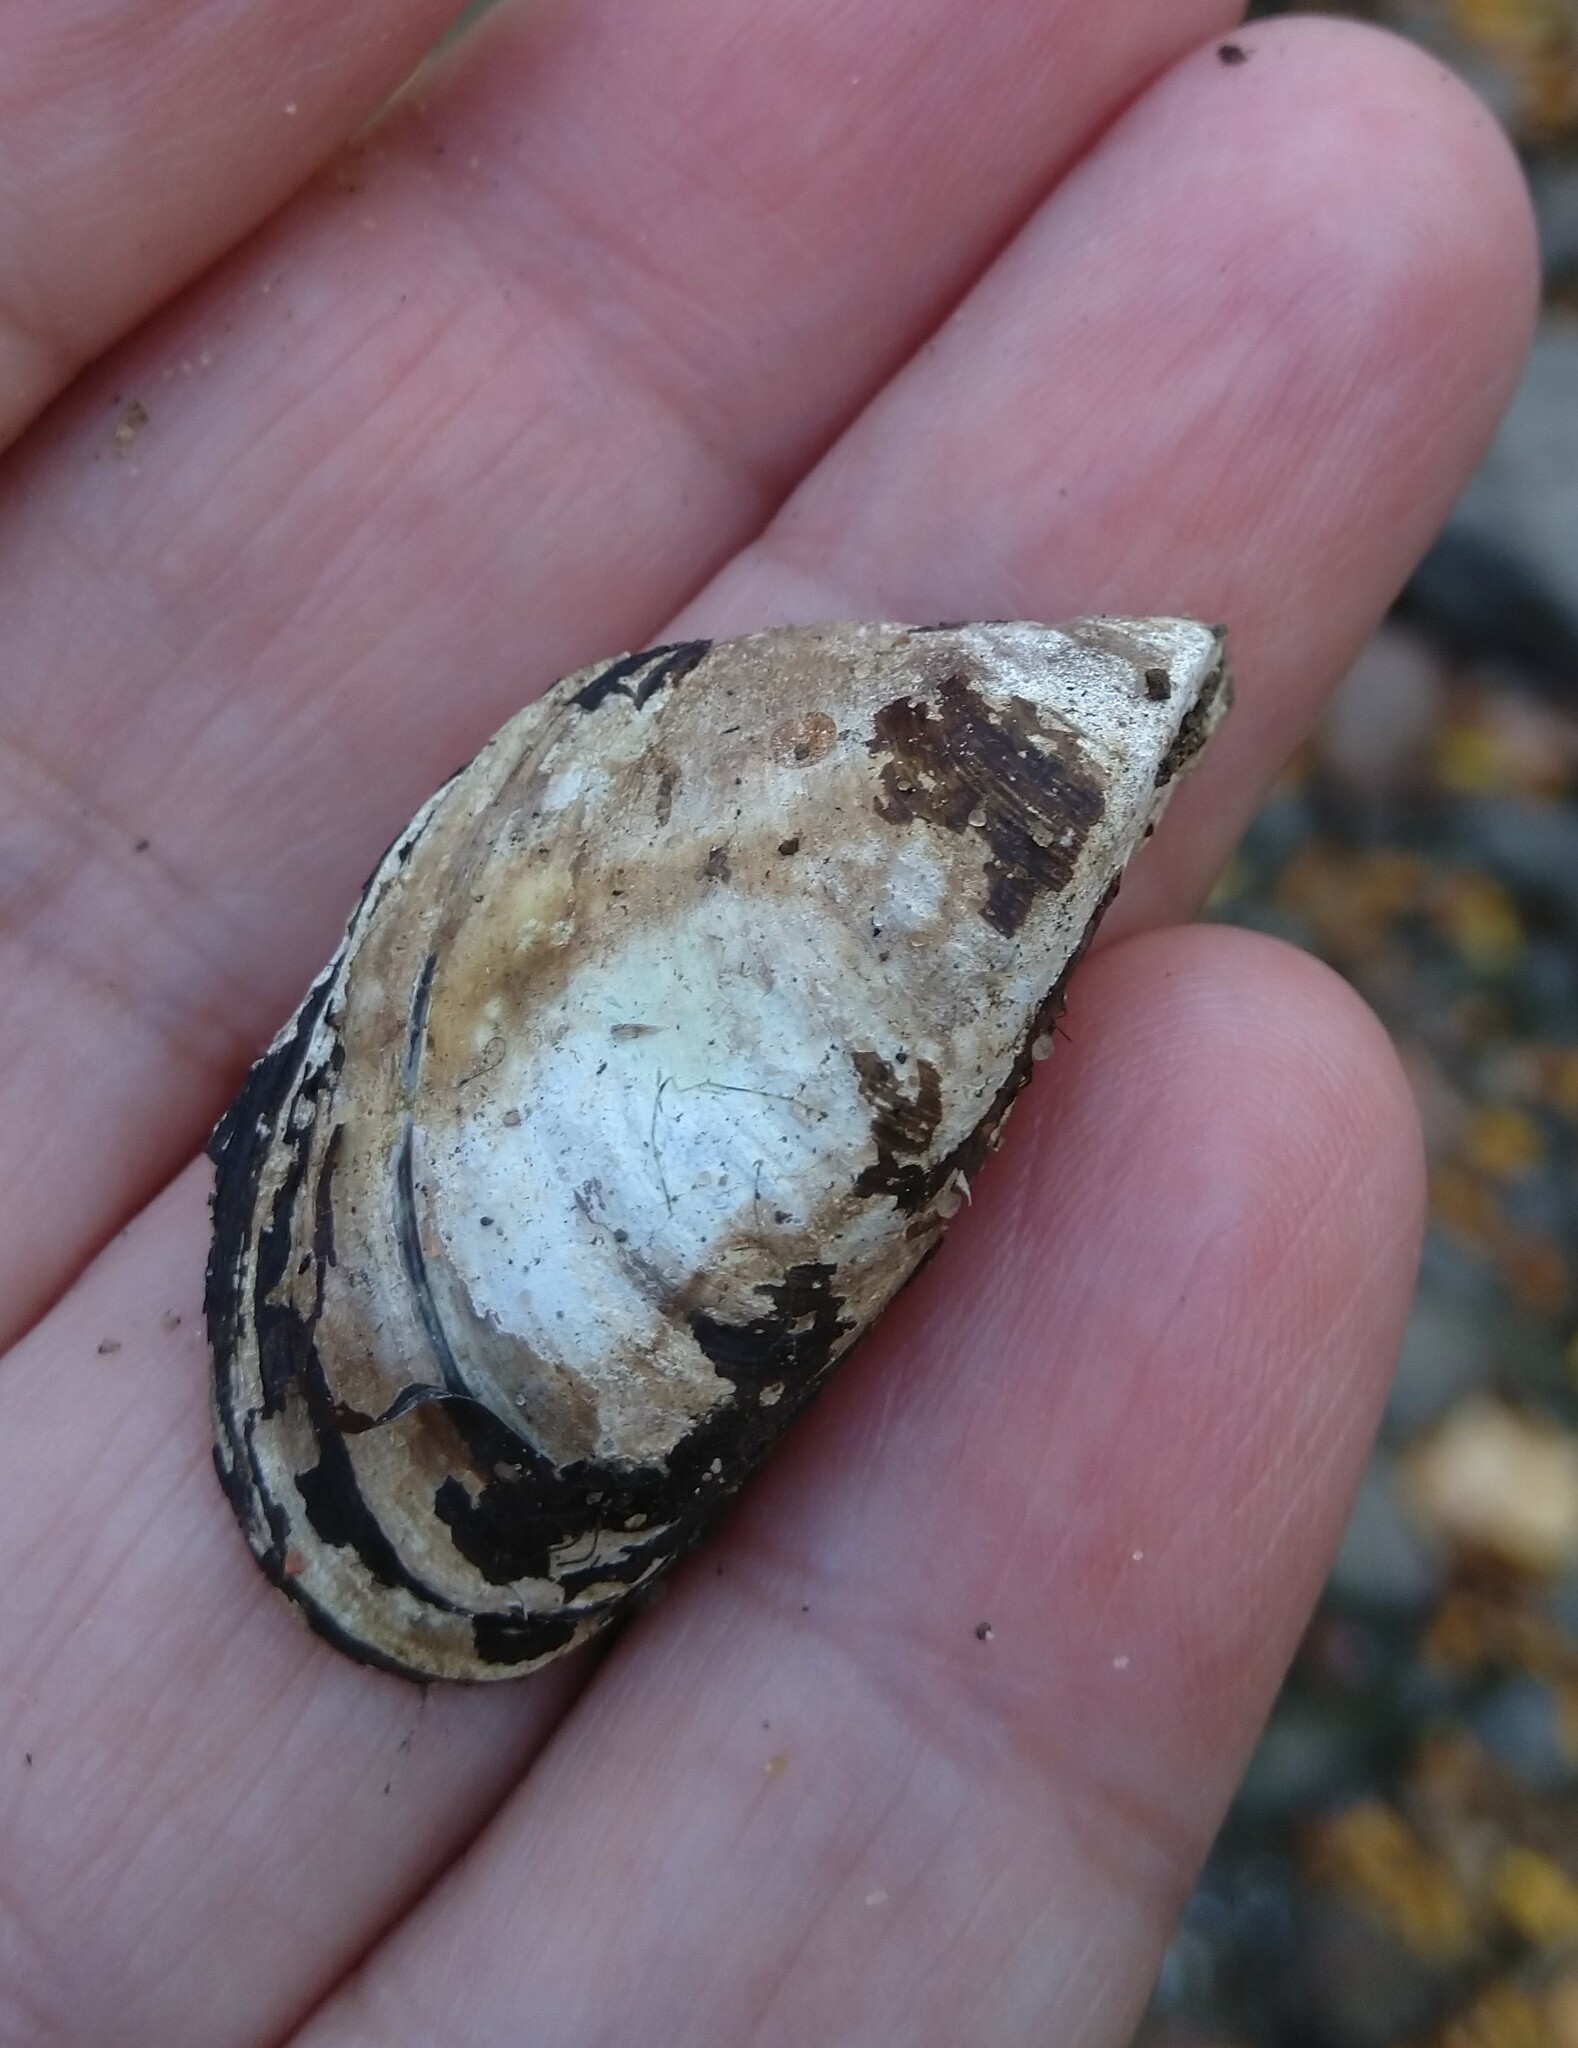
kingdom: Animalia
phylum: Mollusca
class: Bivalvia
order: Myida
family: Dreissenidae
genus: Dreissena
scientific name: Dreissena polymorpha
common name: Zebra mussel
